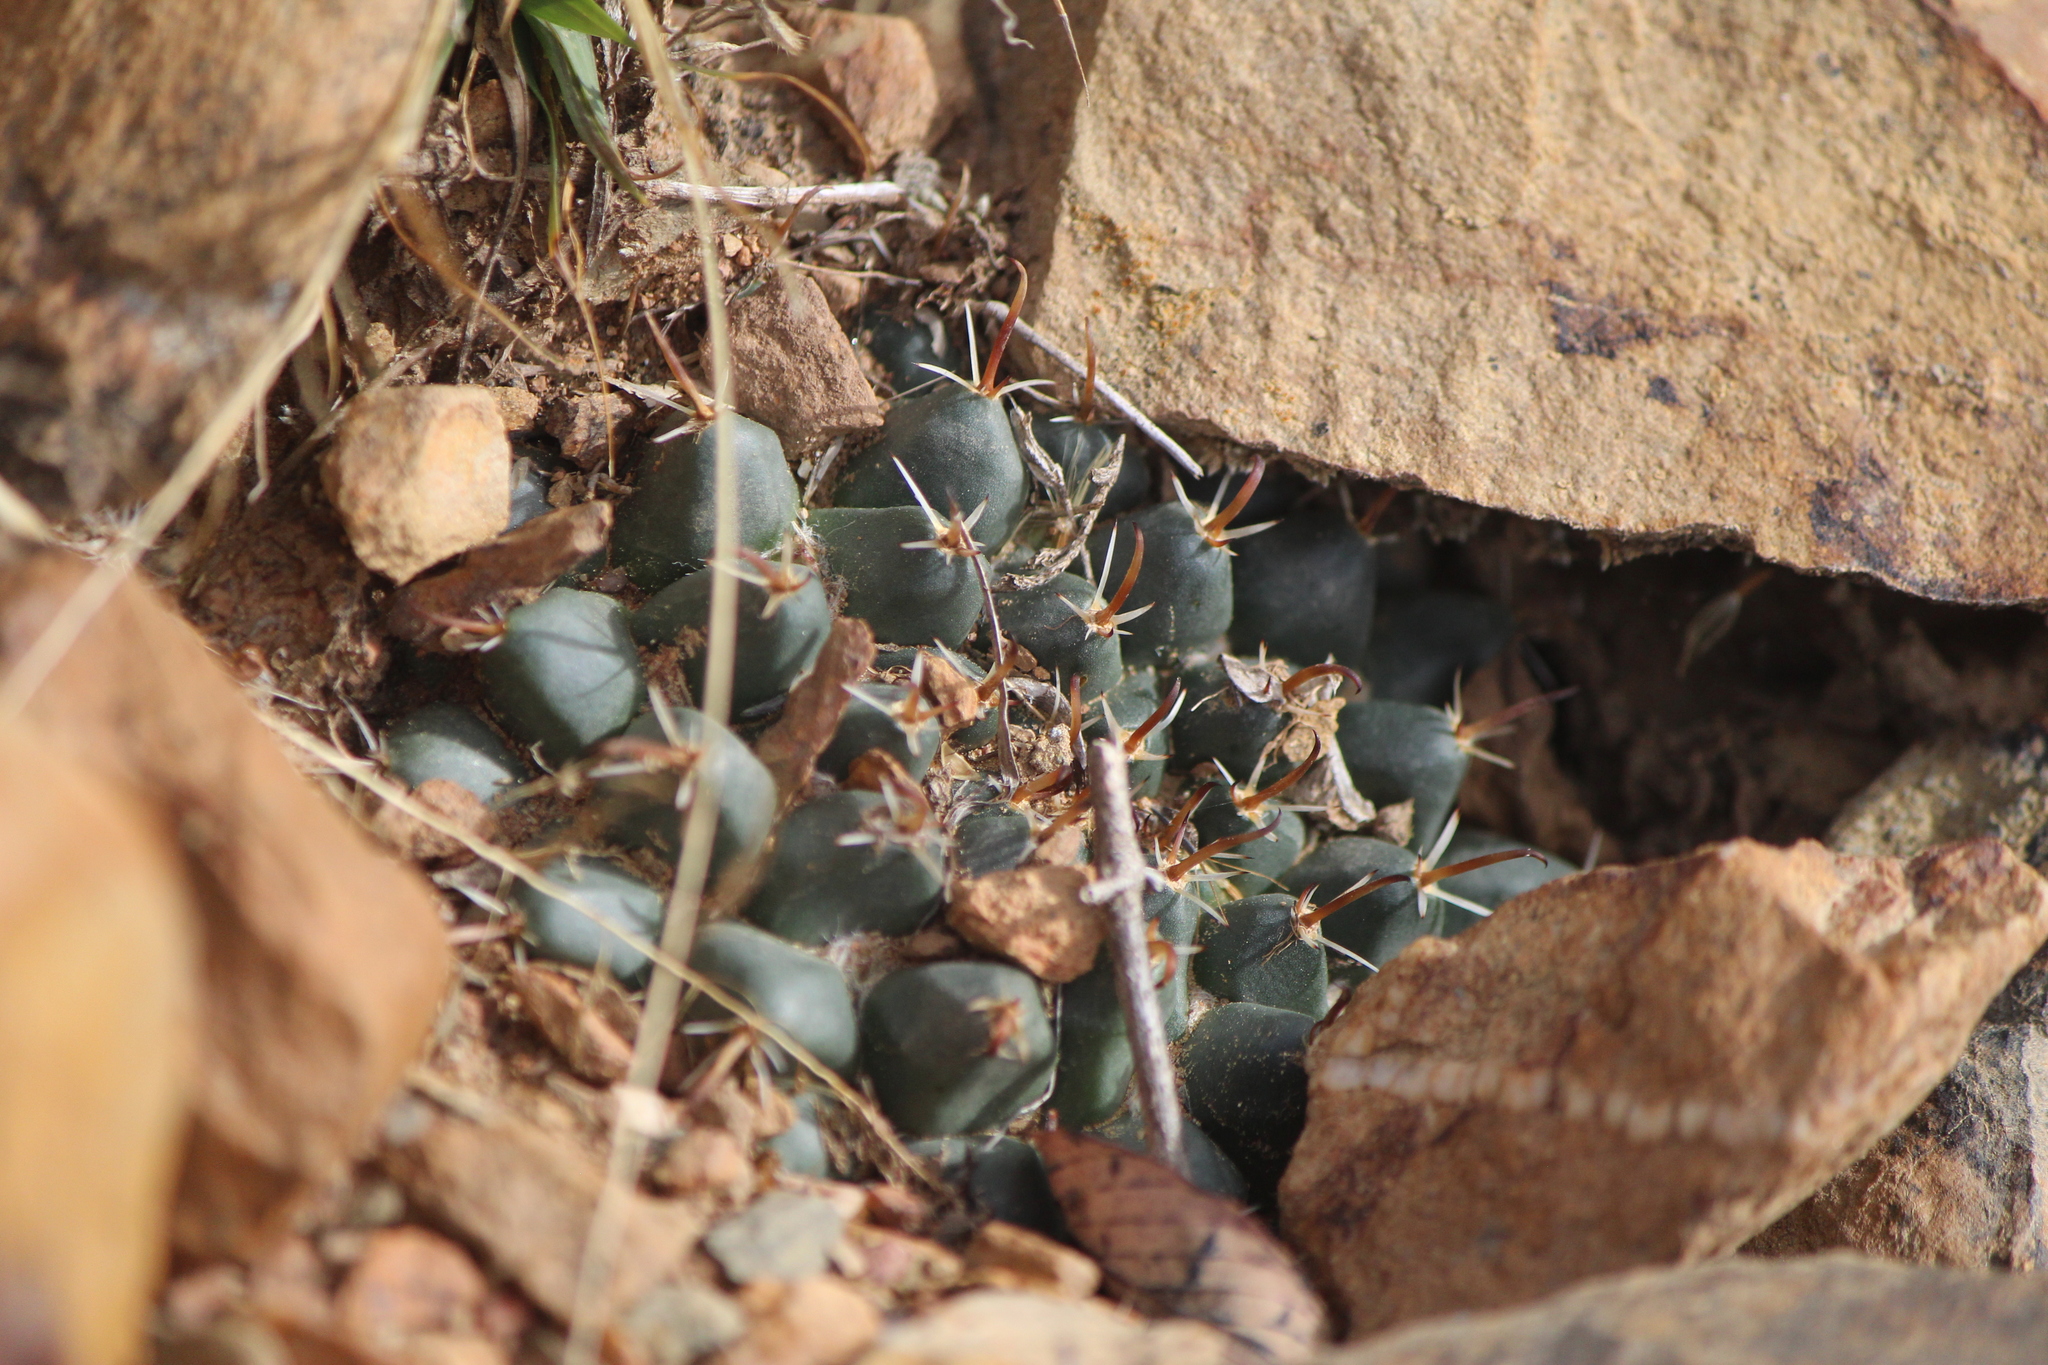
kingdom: Plantae
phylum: Tracheophyta
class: Magnoliopsida
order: Caryophyllales
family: Cactaceae
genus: Mammillaria
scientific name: Mammillaria uncinata
